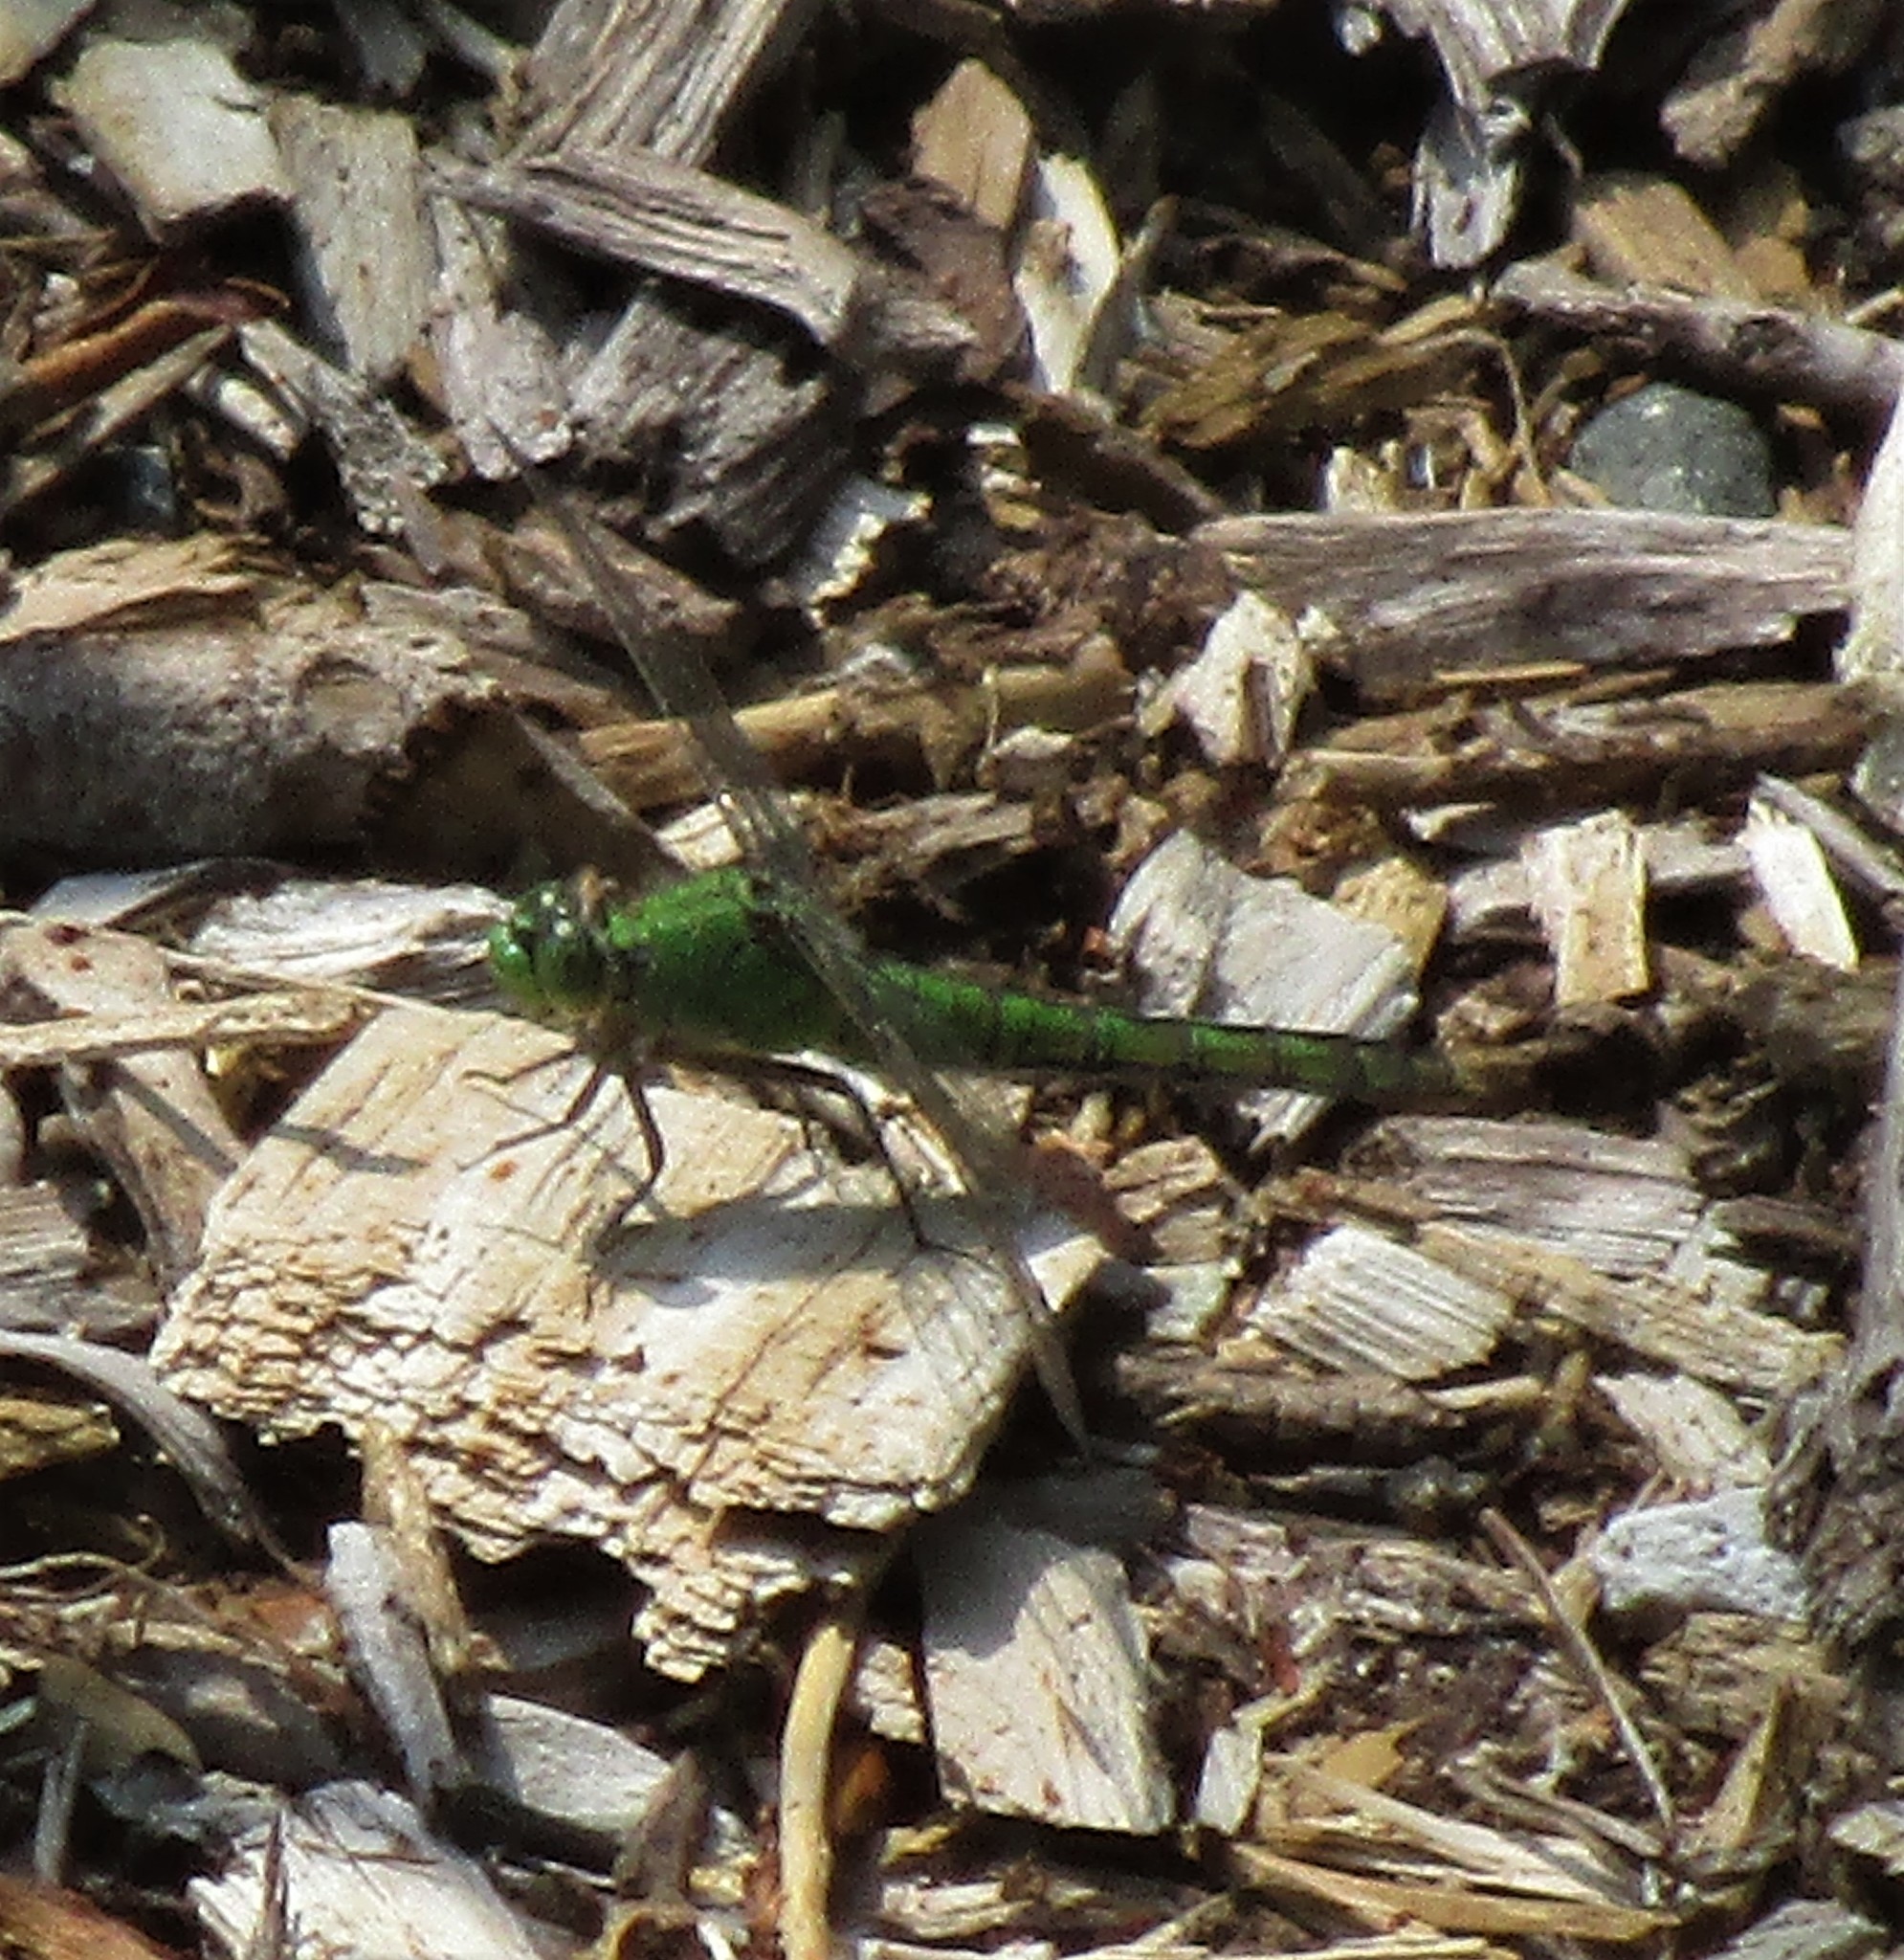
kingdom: Animalia
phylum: Arthropoda
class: Insecta
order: Odonata
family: Libellulidae
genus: Erythemis
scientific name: Erythemis collocata
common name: Western pondhawk
